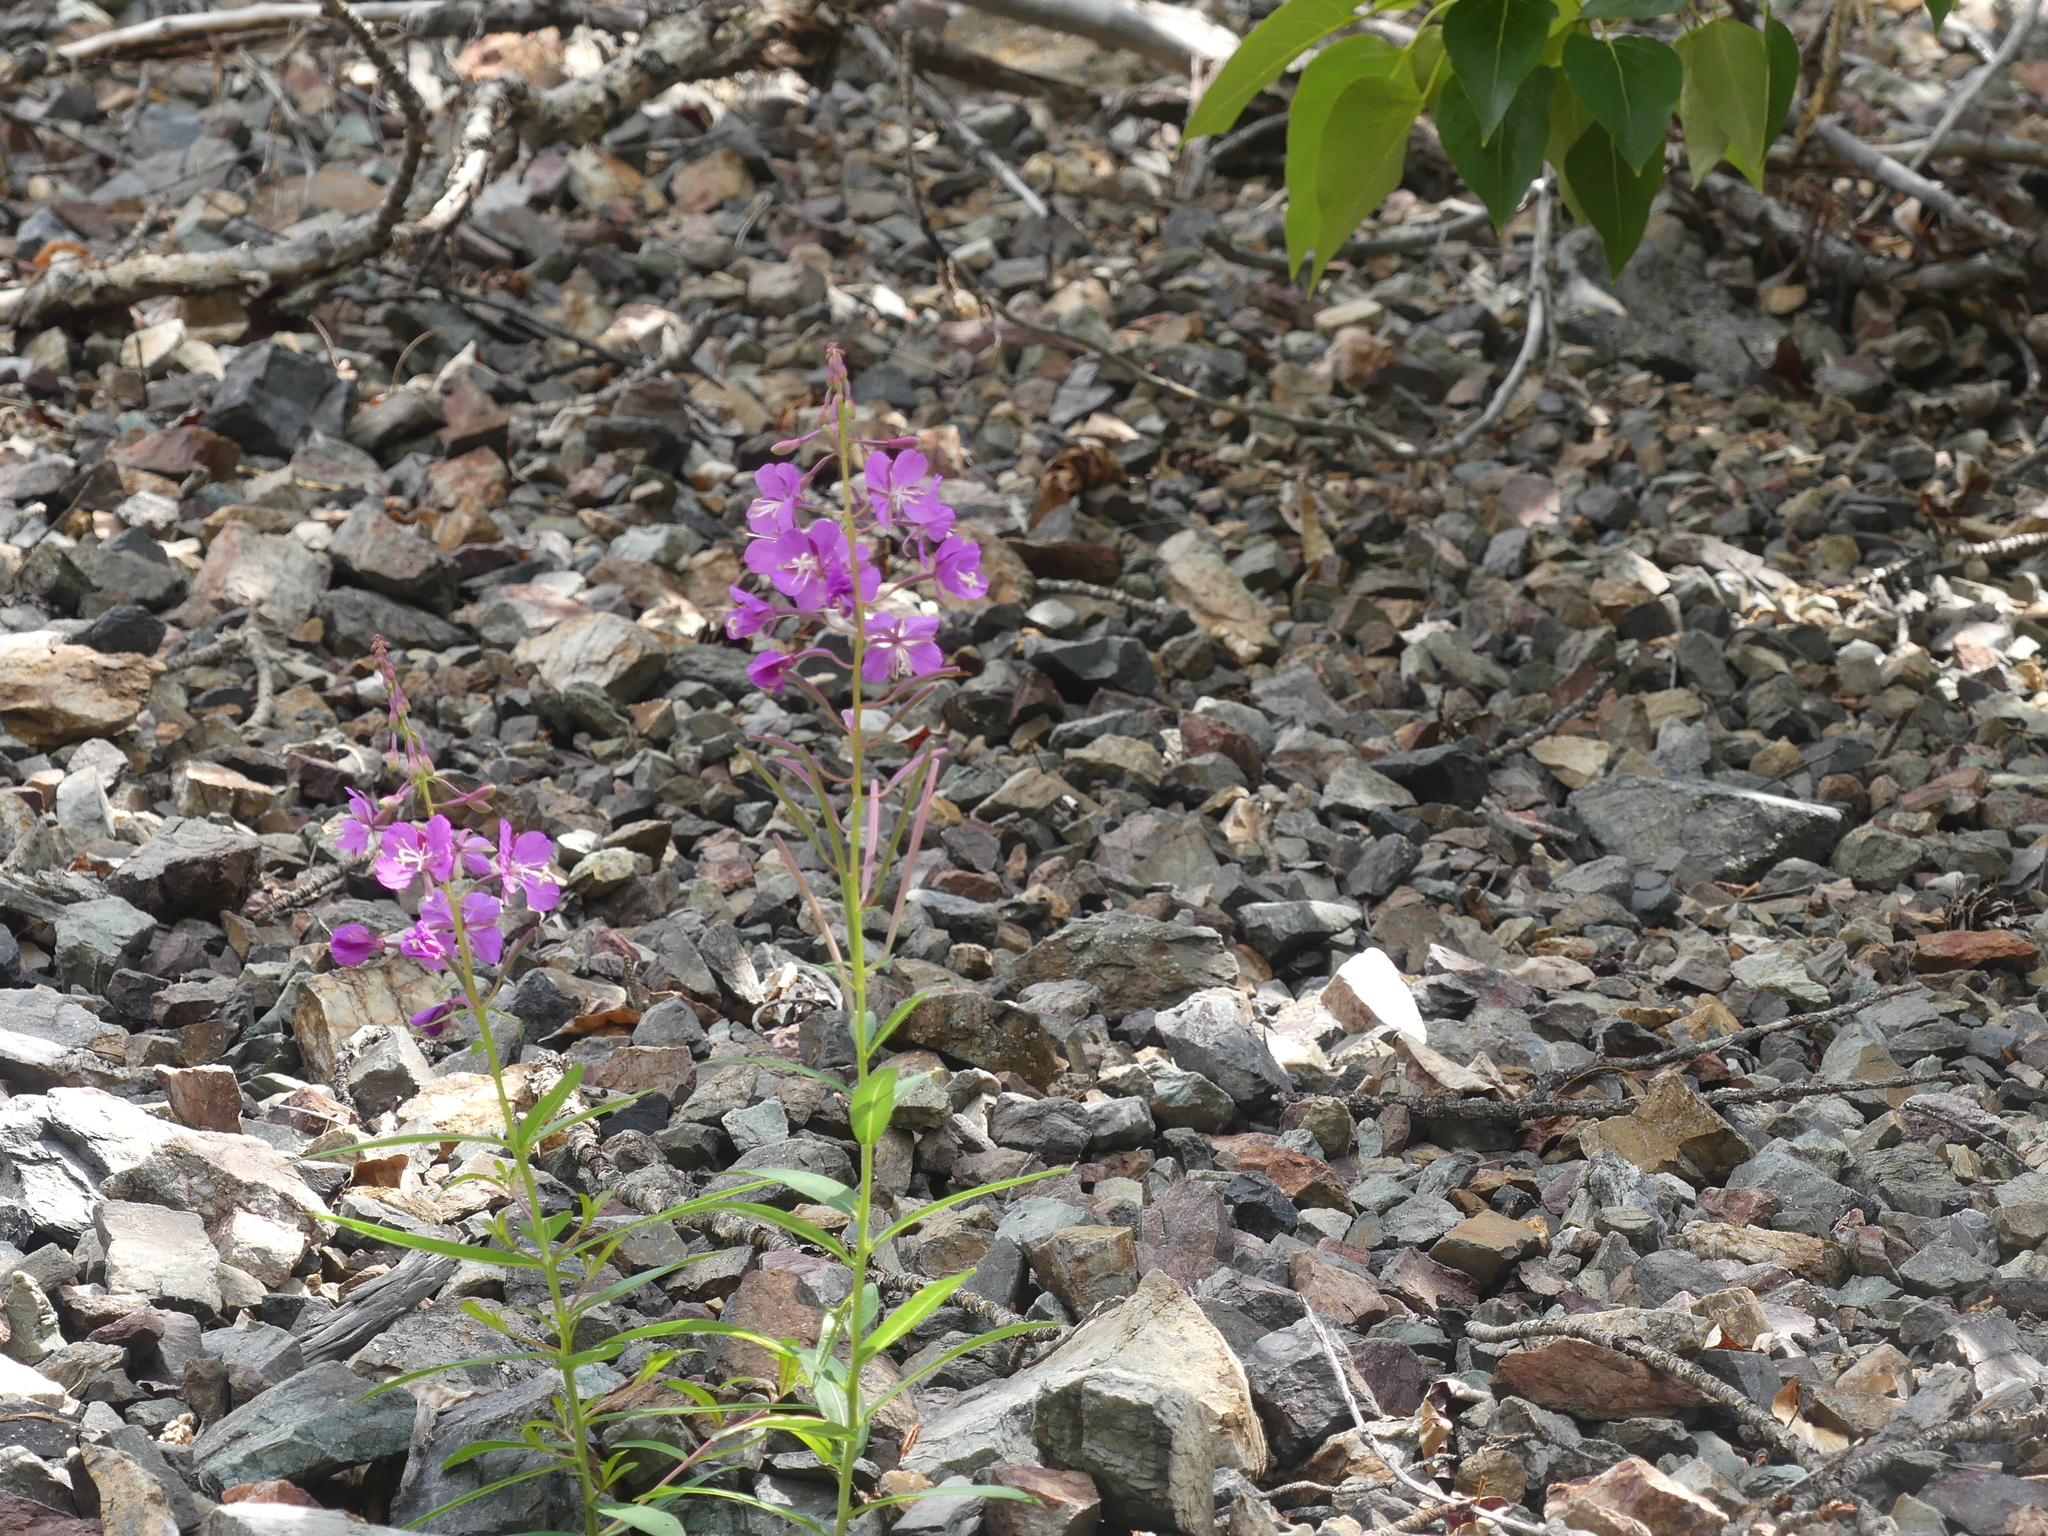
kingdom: Plantae
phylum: Tracheophyta
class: Magnoliopsida
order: Myrtales
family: Onagraceae
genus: Chamaenerion
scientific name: Chamaenerion angustifolium
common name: Fireweed
